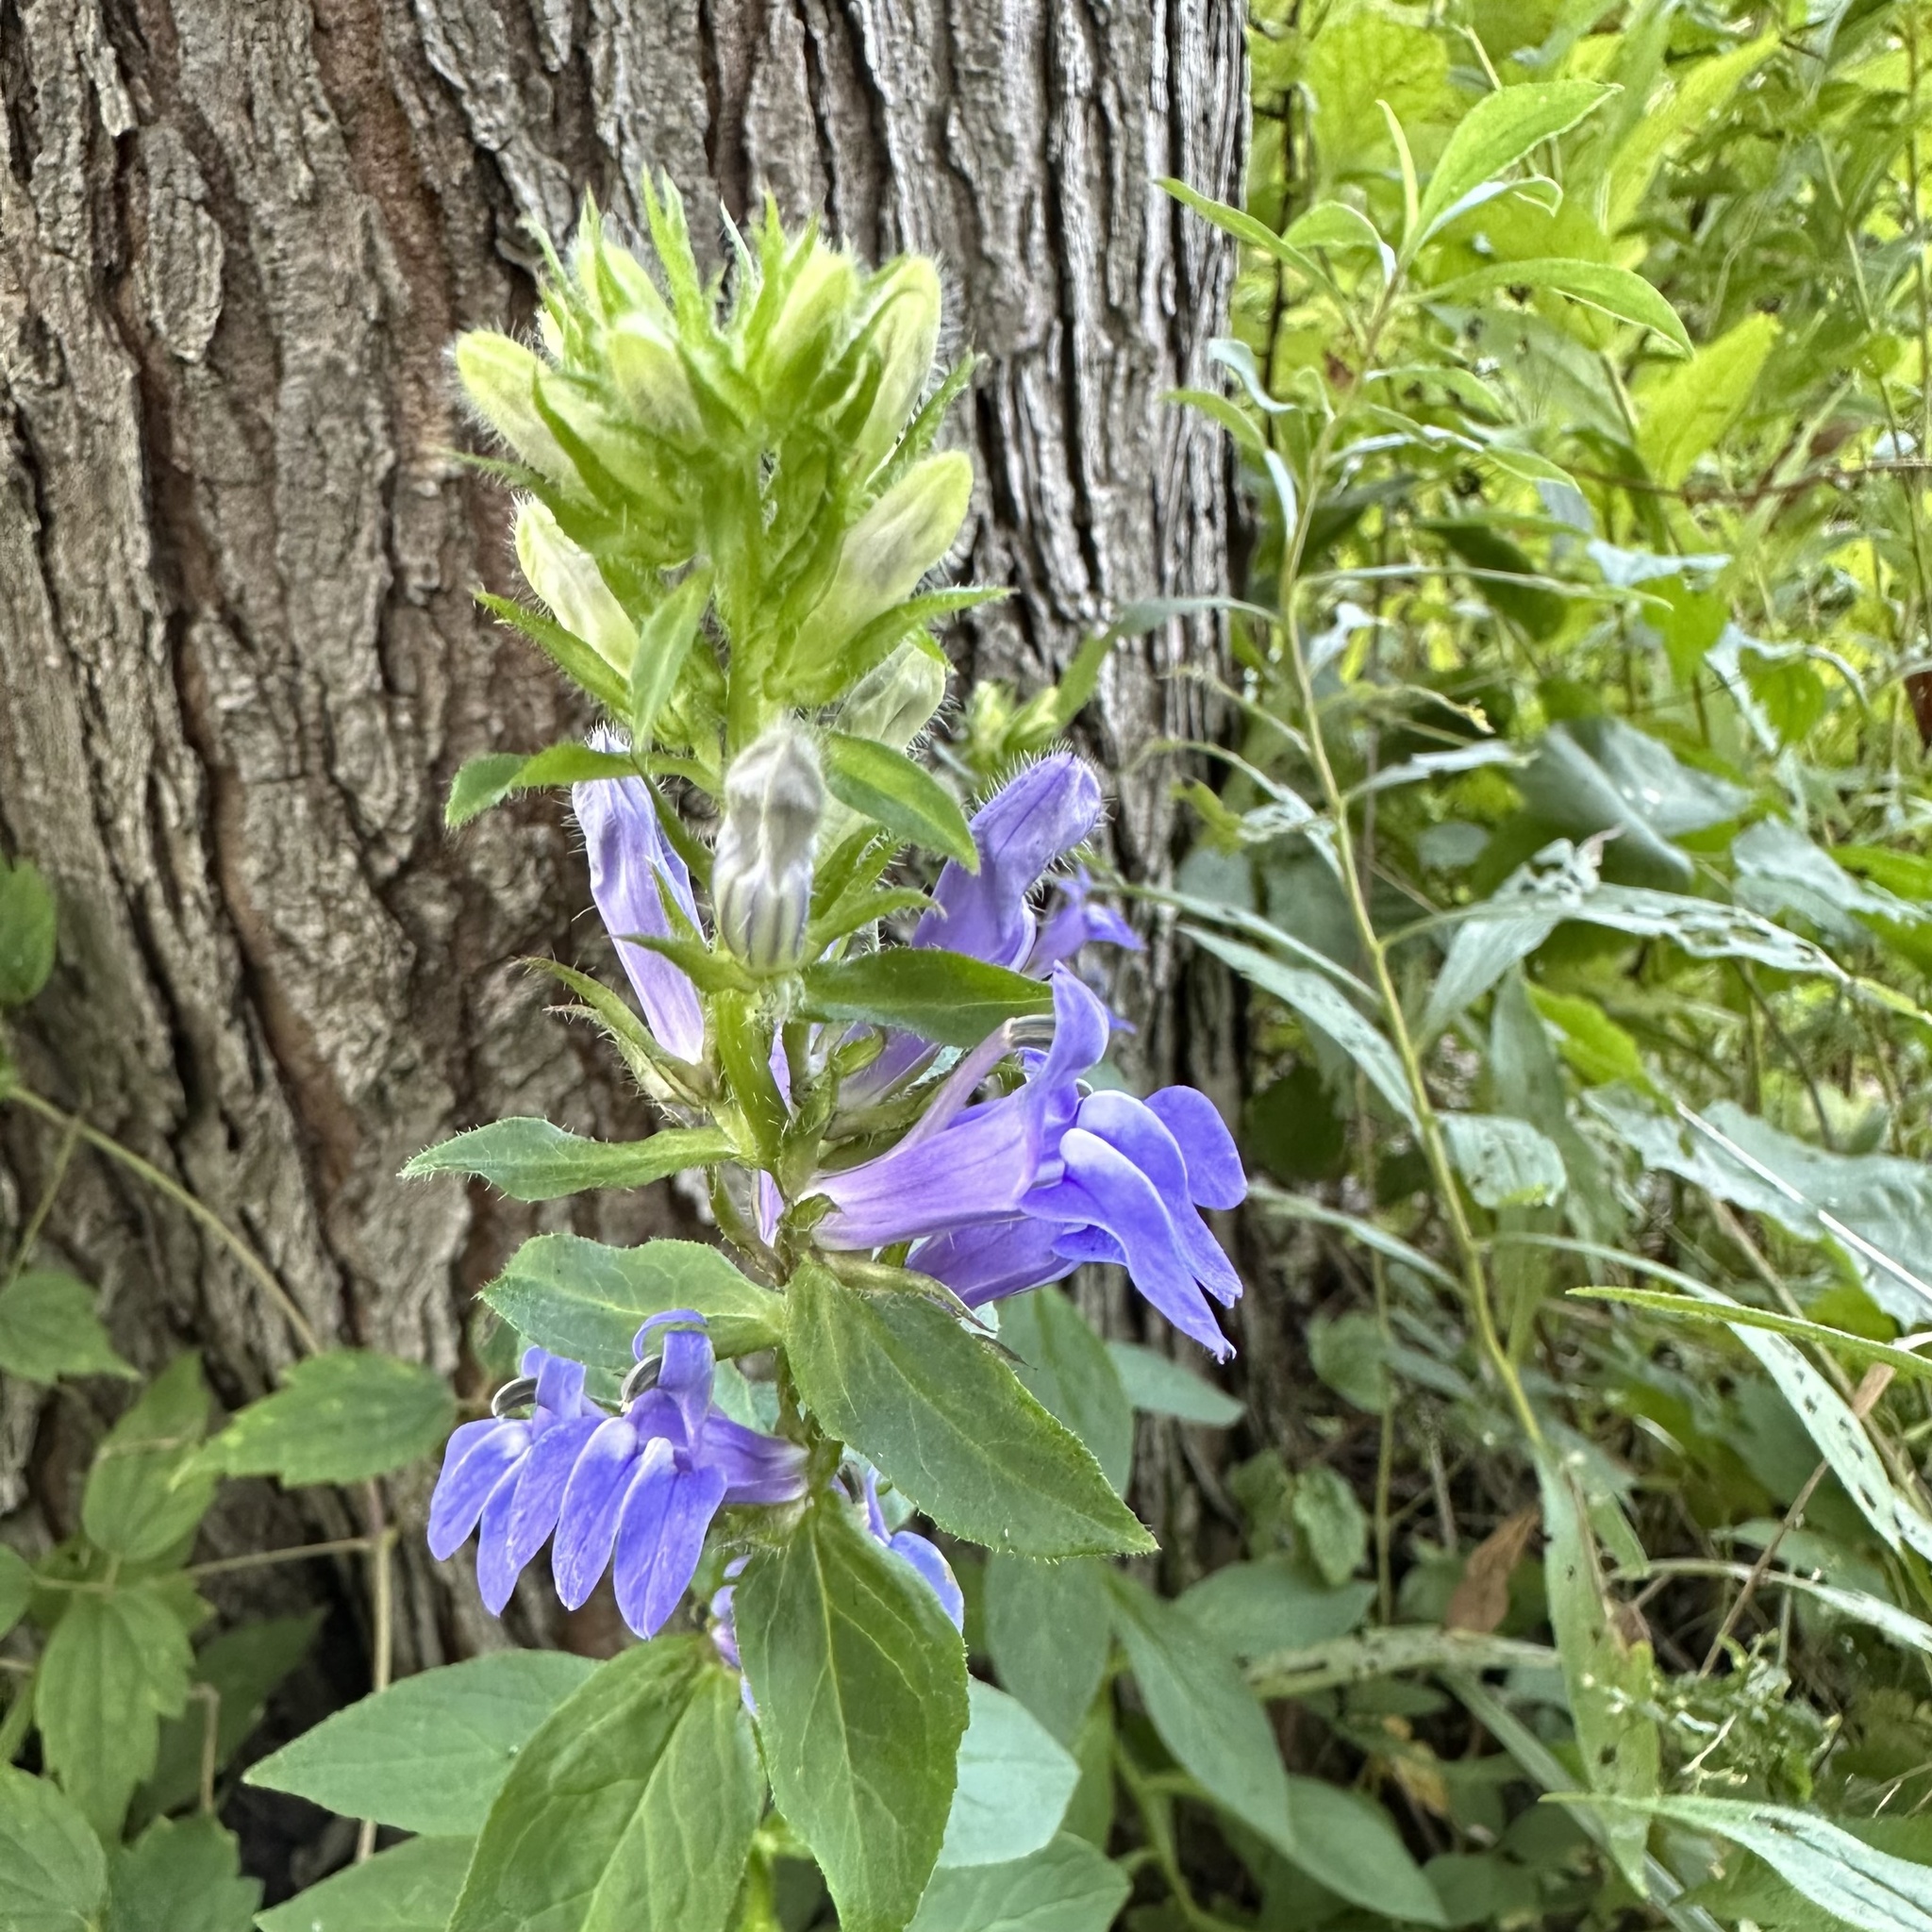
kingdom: Plantae
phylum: Tracheophyta
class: Magnoliopsida
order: Asterales
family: Campanulaceae
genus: Lobelia
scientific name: Lobelia siphilitica
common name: Great lobelia
